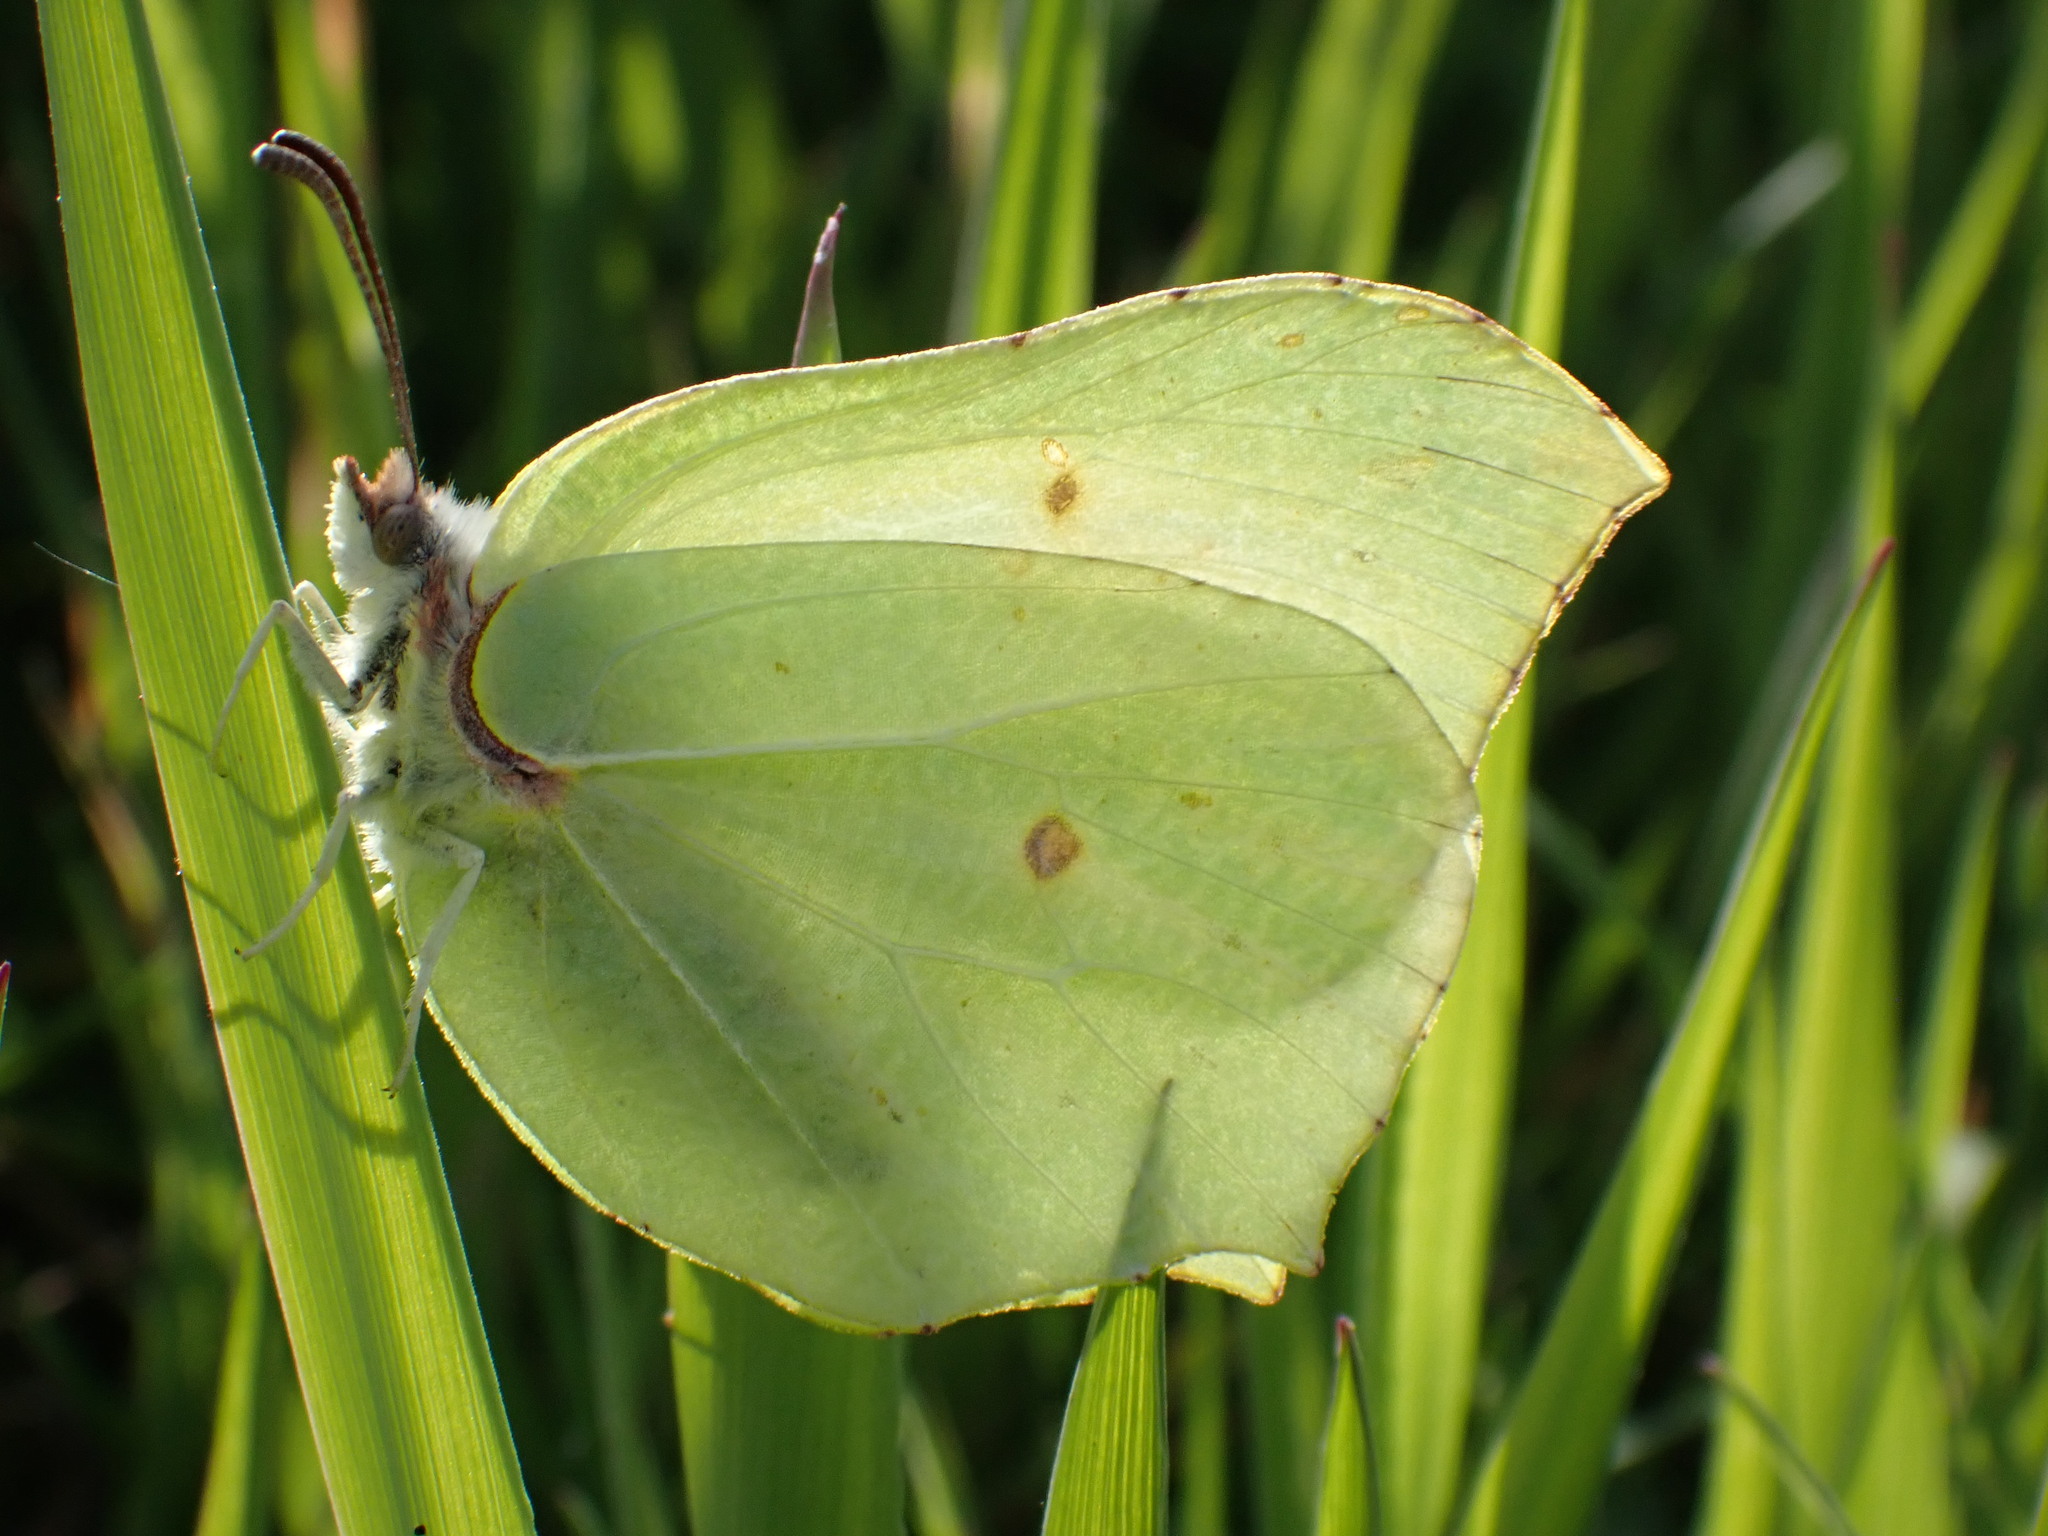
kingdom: Animalia
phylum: Arthropoda
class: Insecta
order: Lepidoptera
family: Pieridae
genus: Gonepteryx
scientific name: Gonepteryx rhamni
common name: Brimstone
